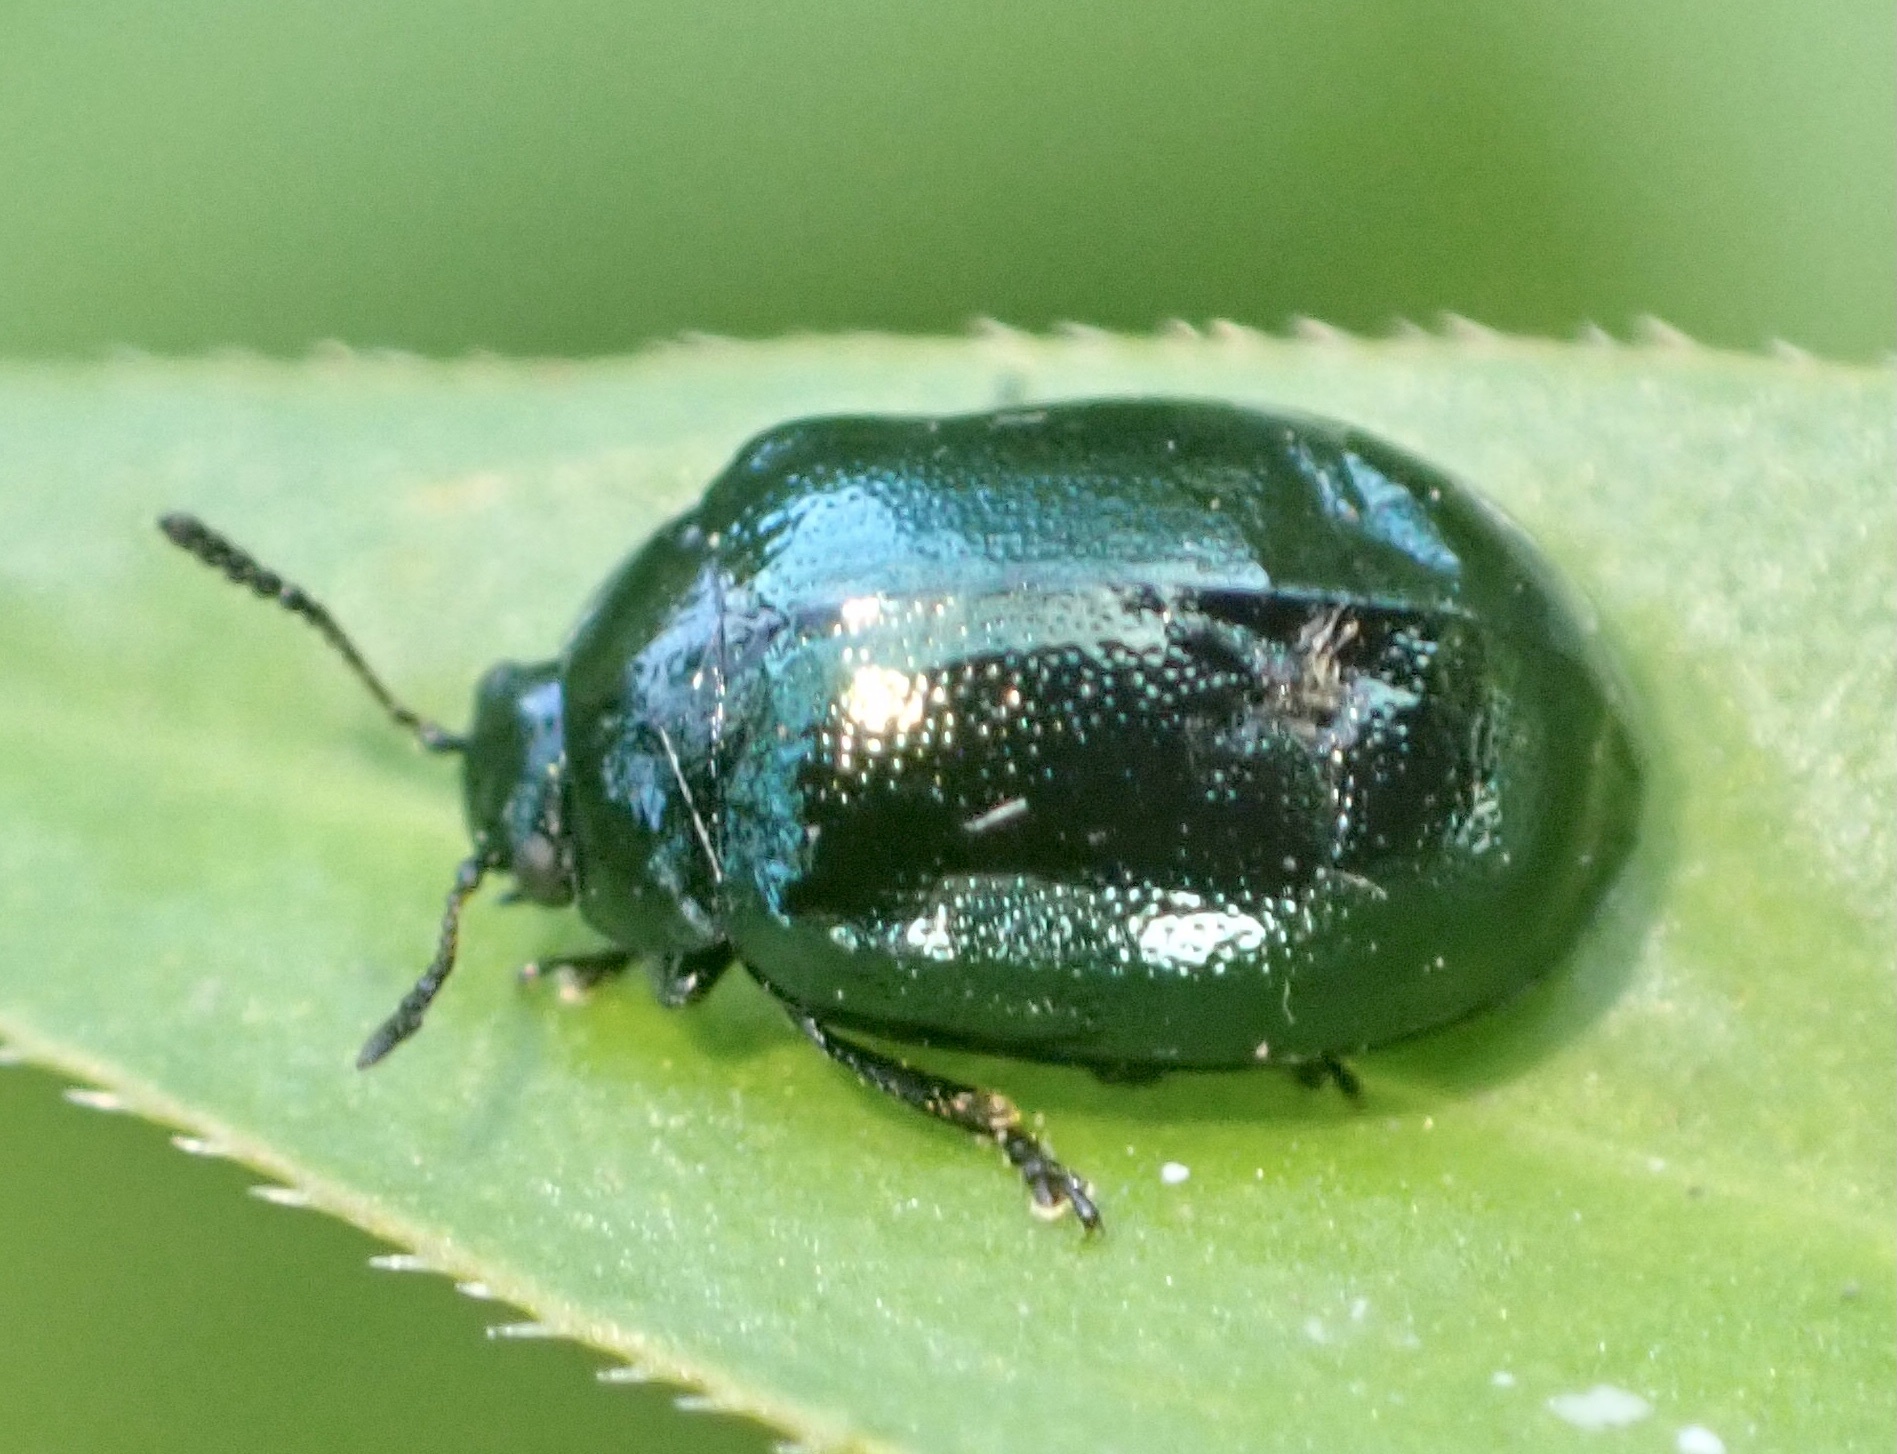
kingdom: Animalia
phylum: Arthropoda
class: Insecta
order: Coleoptera
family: Chrysomelidae
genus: Plagiodera
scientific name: Plagiodera versicolora
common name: Imported willow leaf beetle
